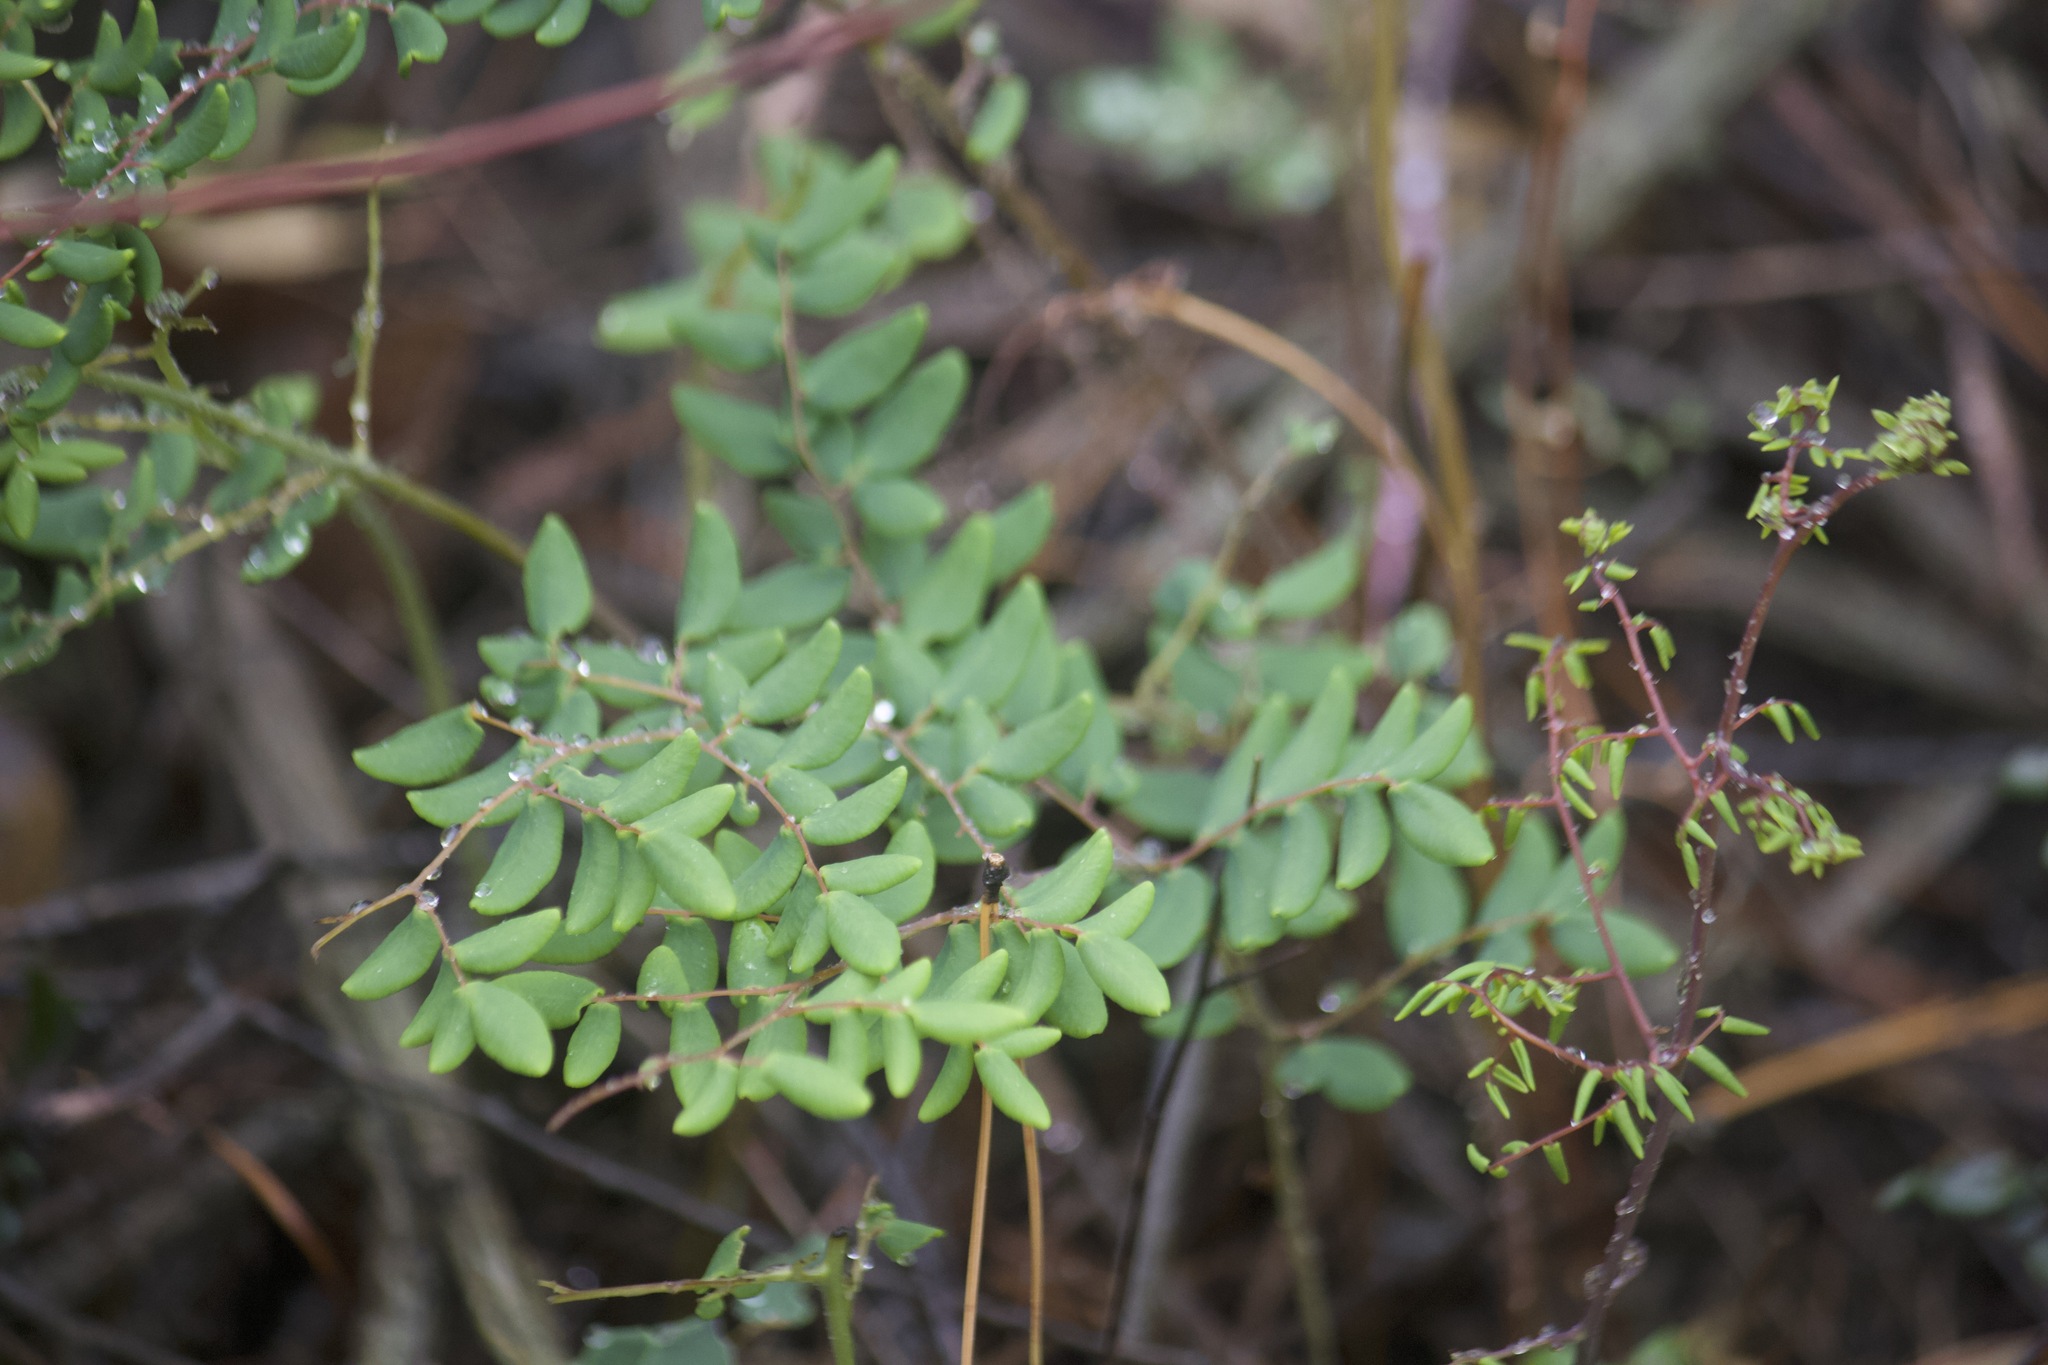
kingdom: Plantae
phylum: Tracheophyta
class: Polypodiopsida
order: Polypodiales
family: Pteridaceae
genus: Pellaea
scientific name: Pellaea andromedifolia
